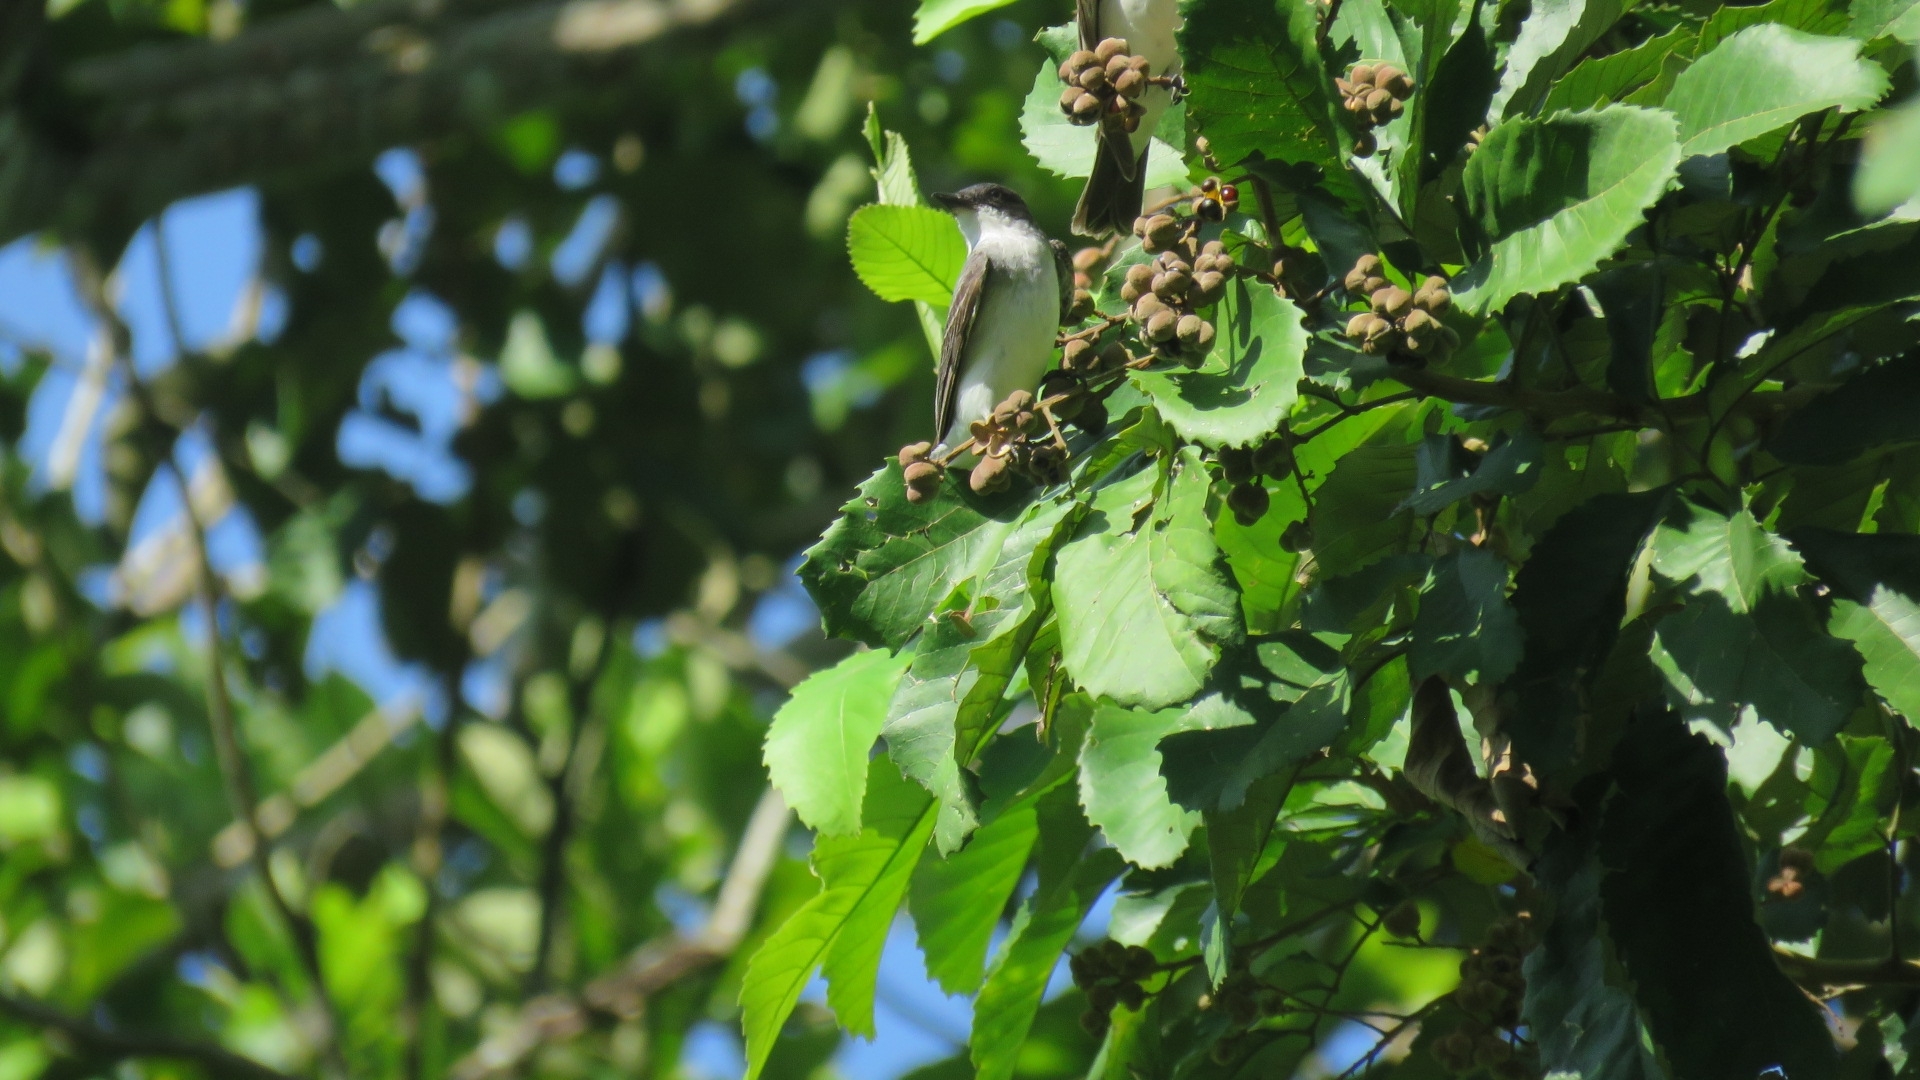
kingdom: Animalia
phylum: Chordata
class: Aves
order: Passeriformes
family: Tyrannidae
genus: Tyrannus
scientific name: Tyrannus tyrannus
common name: Eastern kingbird
